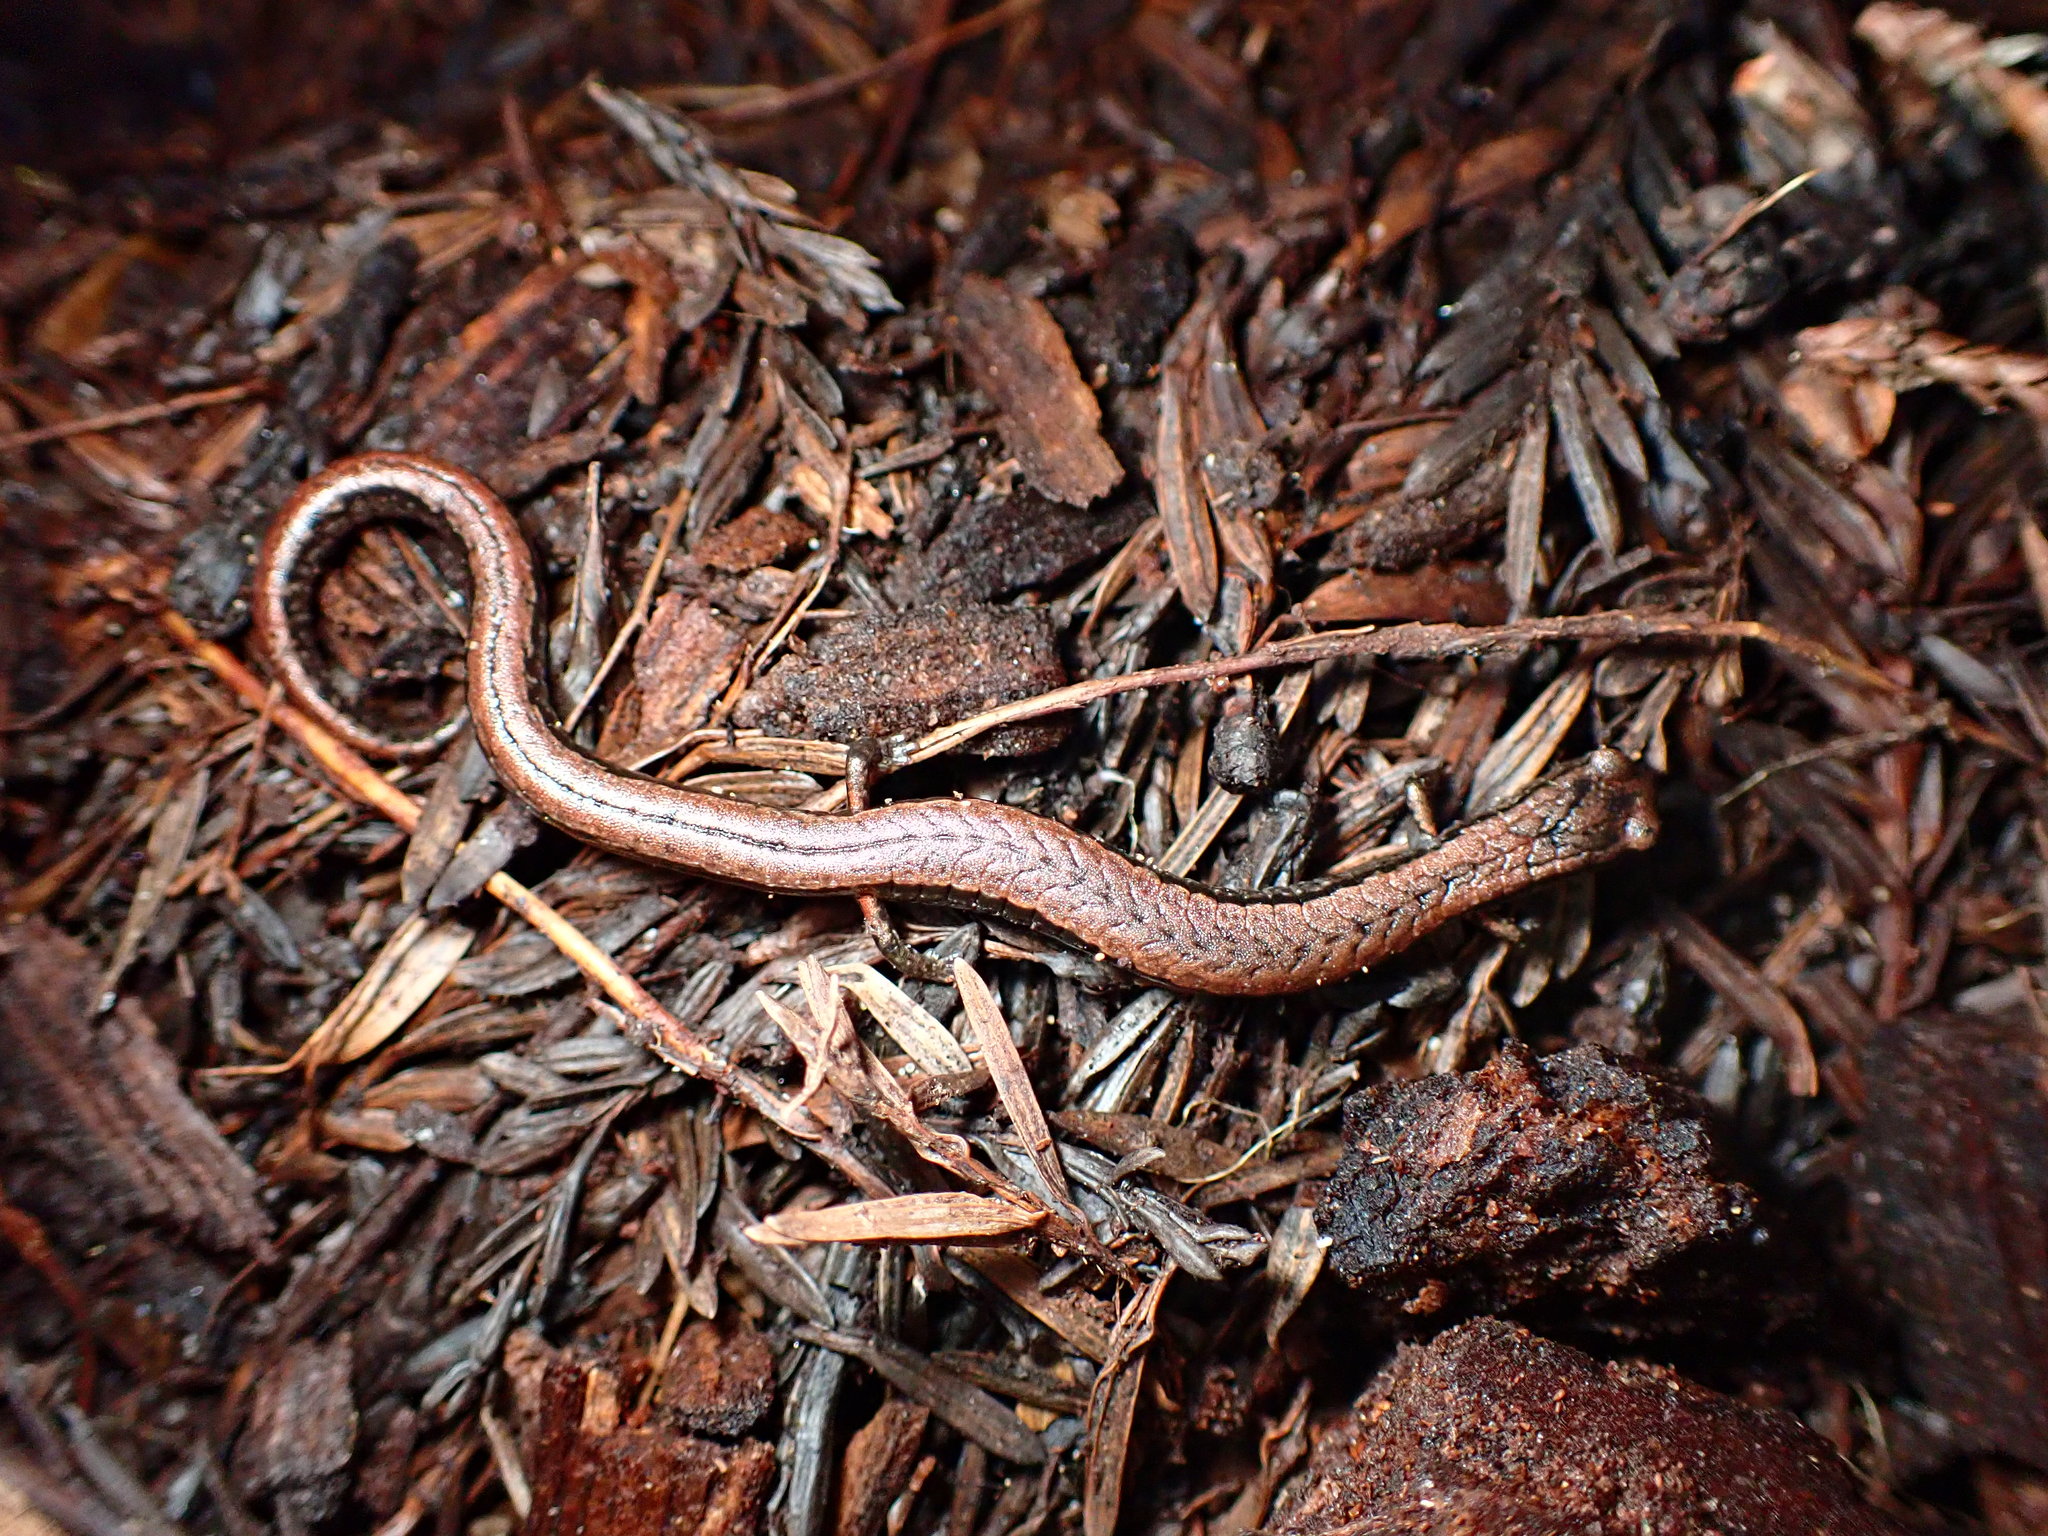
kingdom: Animalia
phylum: Chordata
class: Amphibia
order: Caudata
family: Plethodontidae
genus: Batrachoseps
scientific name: Batrachoseps attenuatus
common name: California slender salamander
